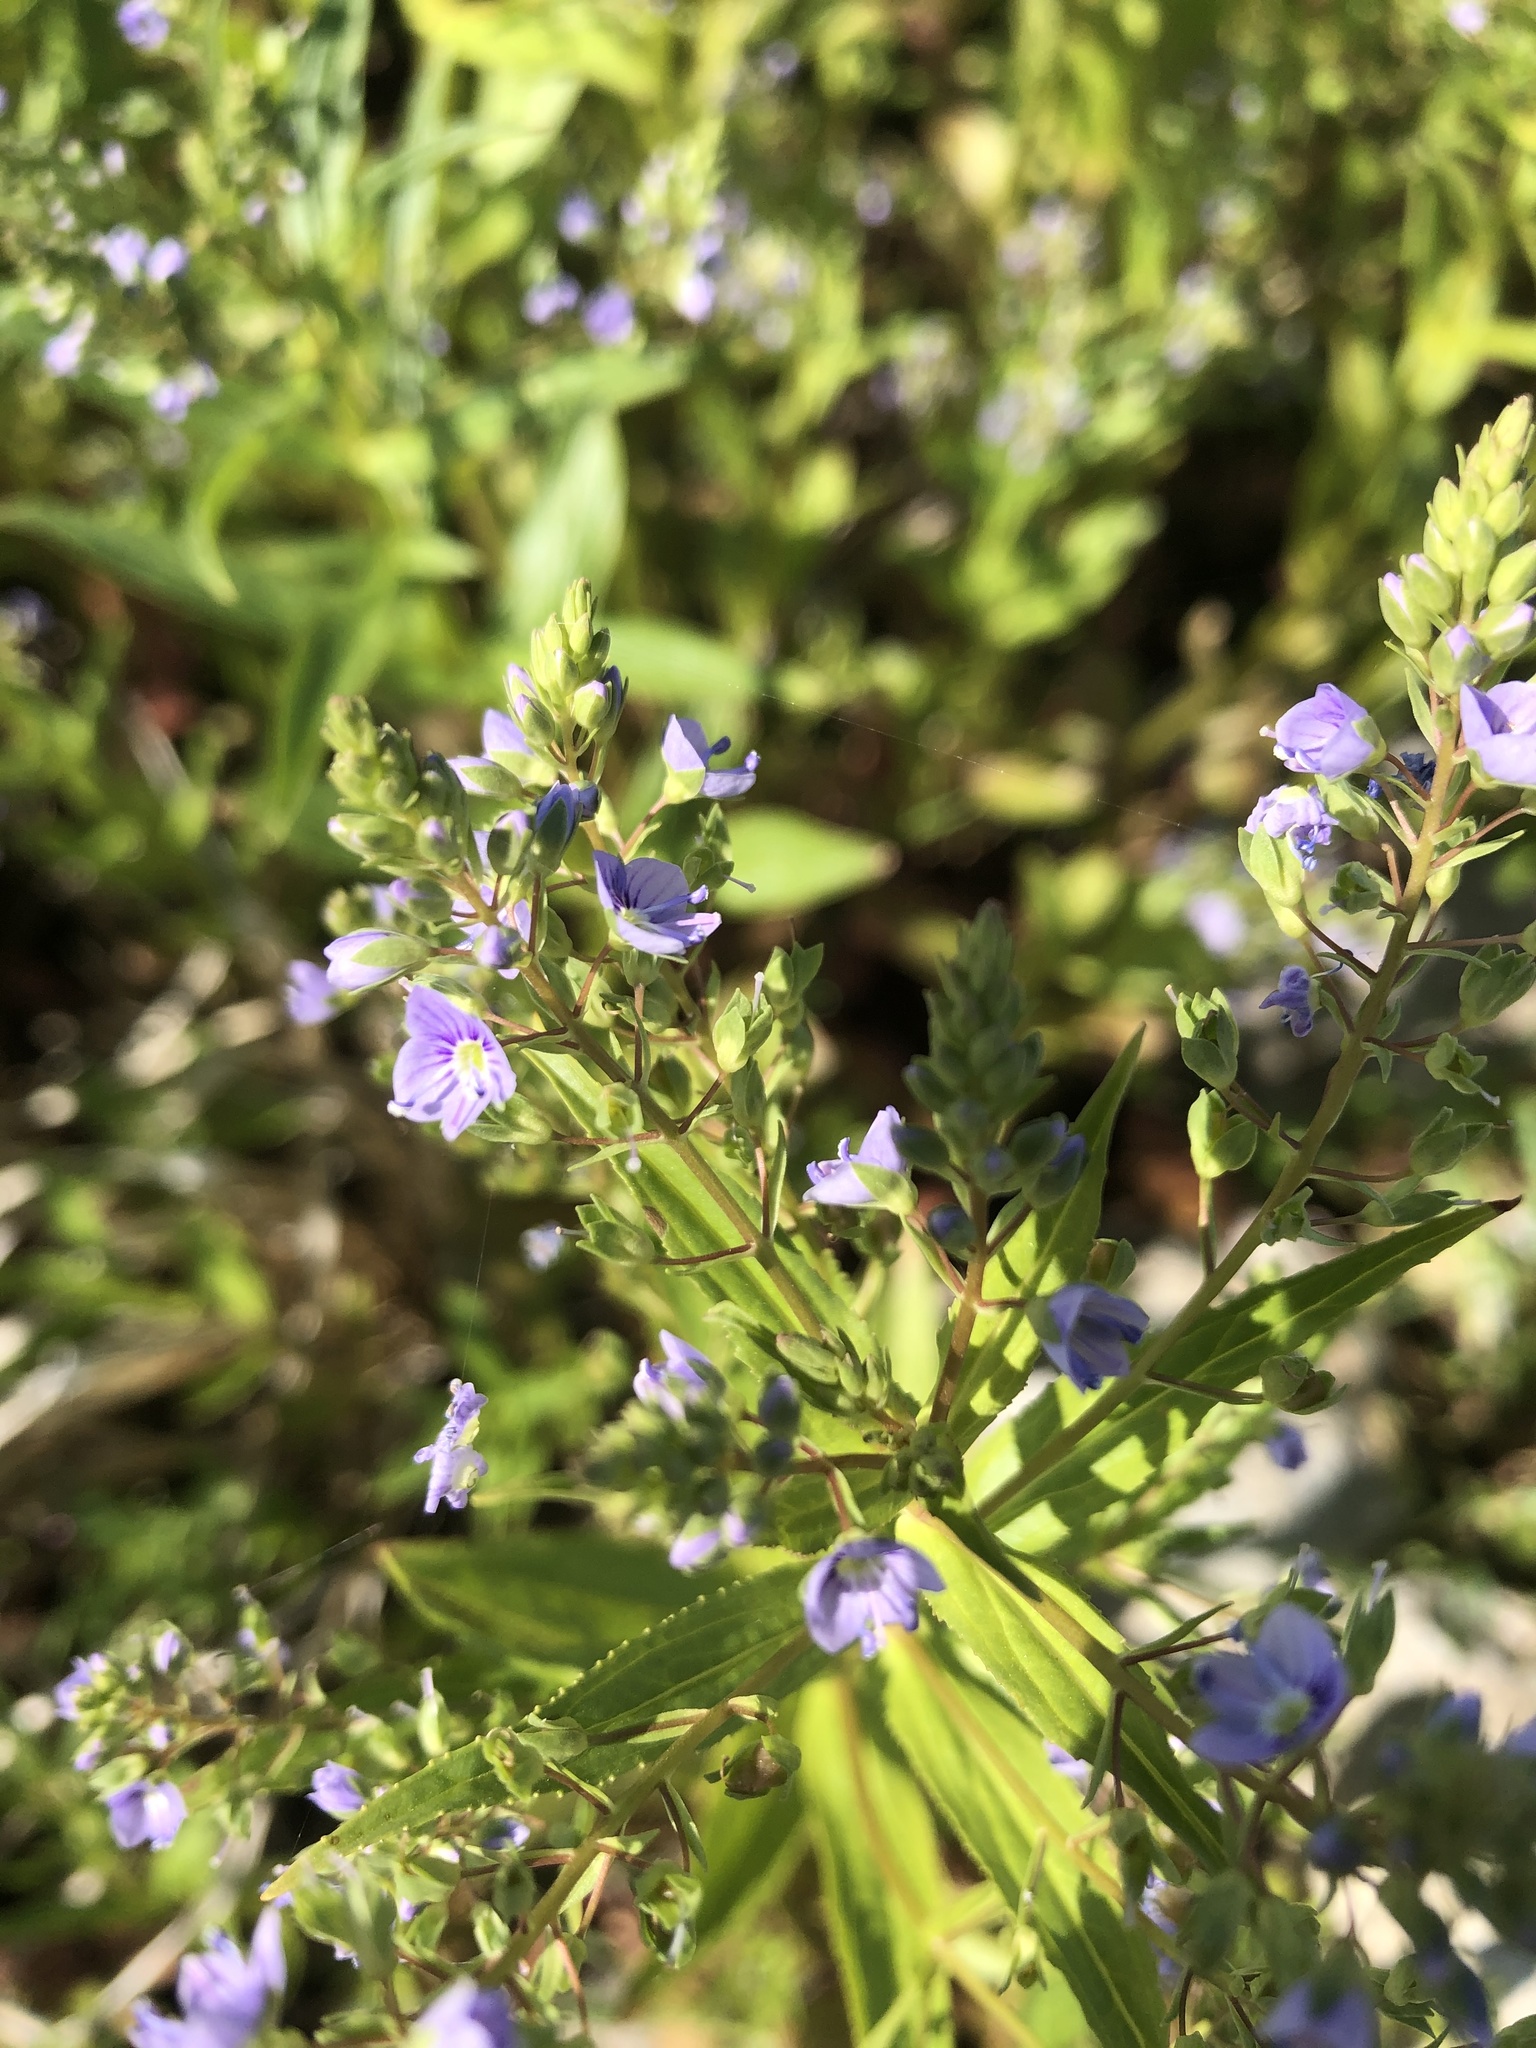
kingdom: Plantae
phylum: Tracheophyta
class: Magnoliopsida
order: Lamiales
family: Plantaginaceae
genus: Veronica
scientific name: Veronica anagallis-aquatica
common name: Water speedwell
